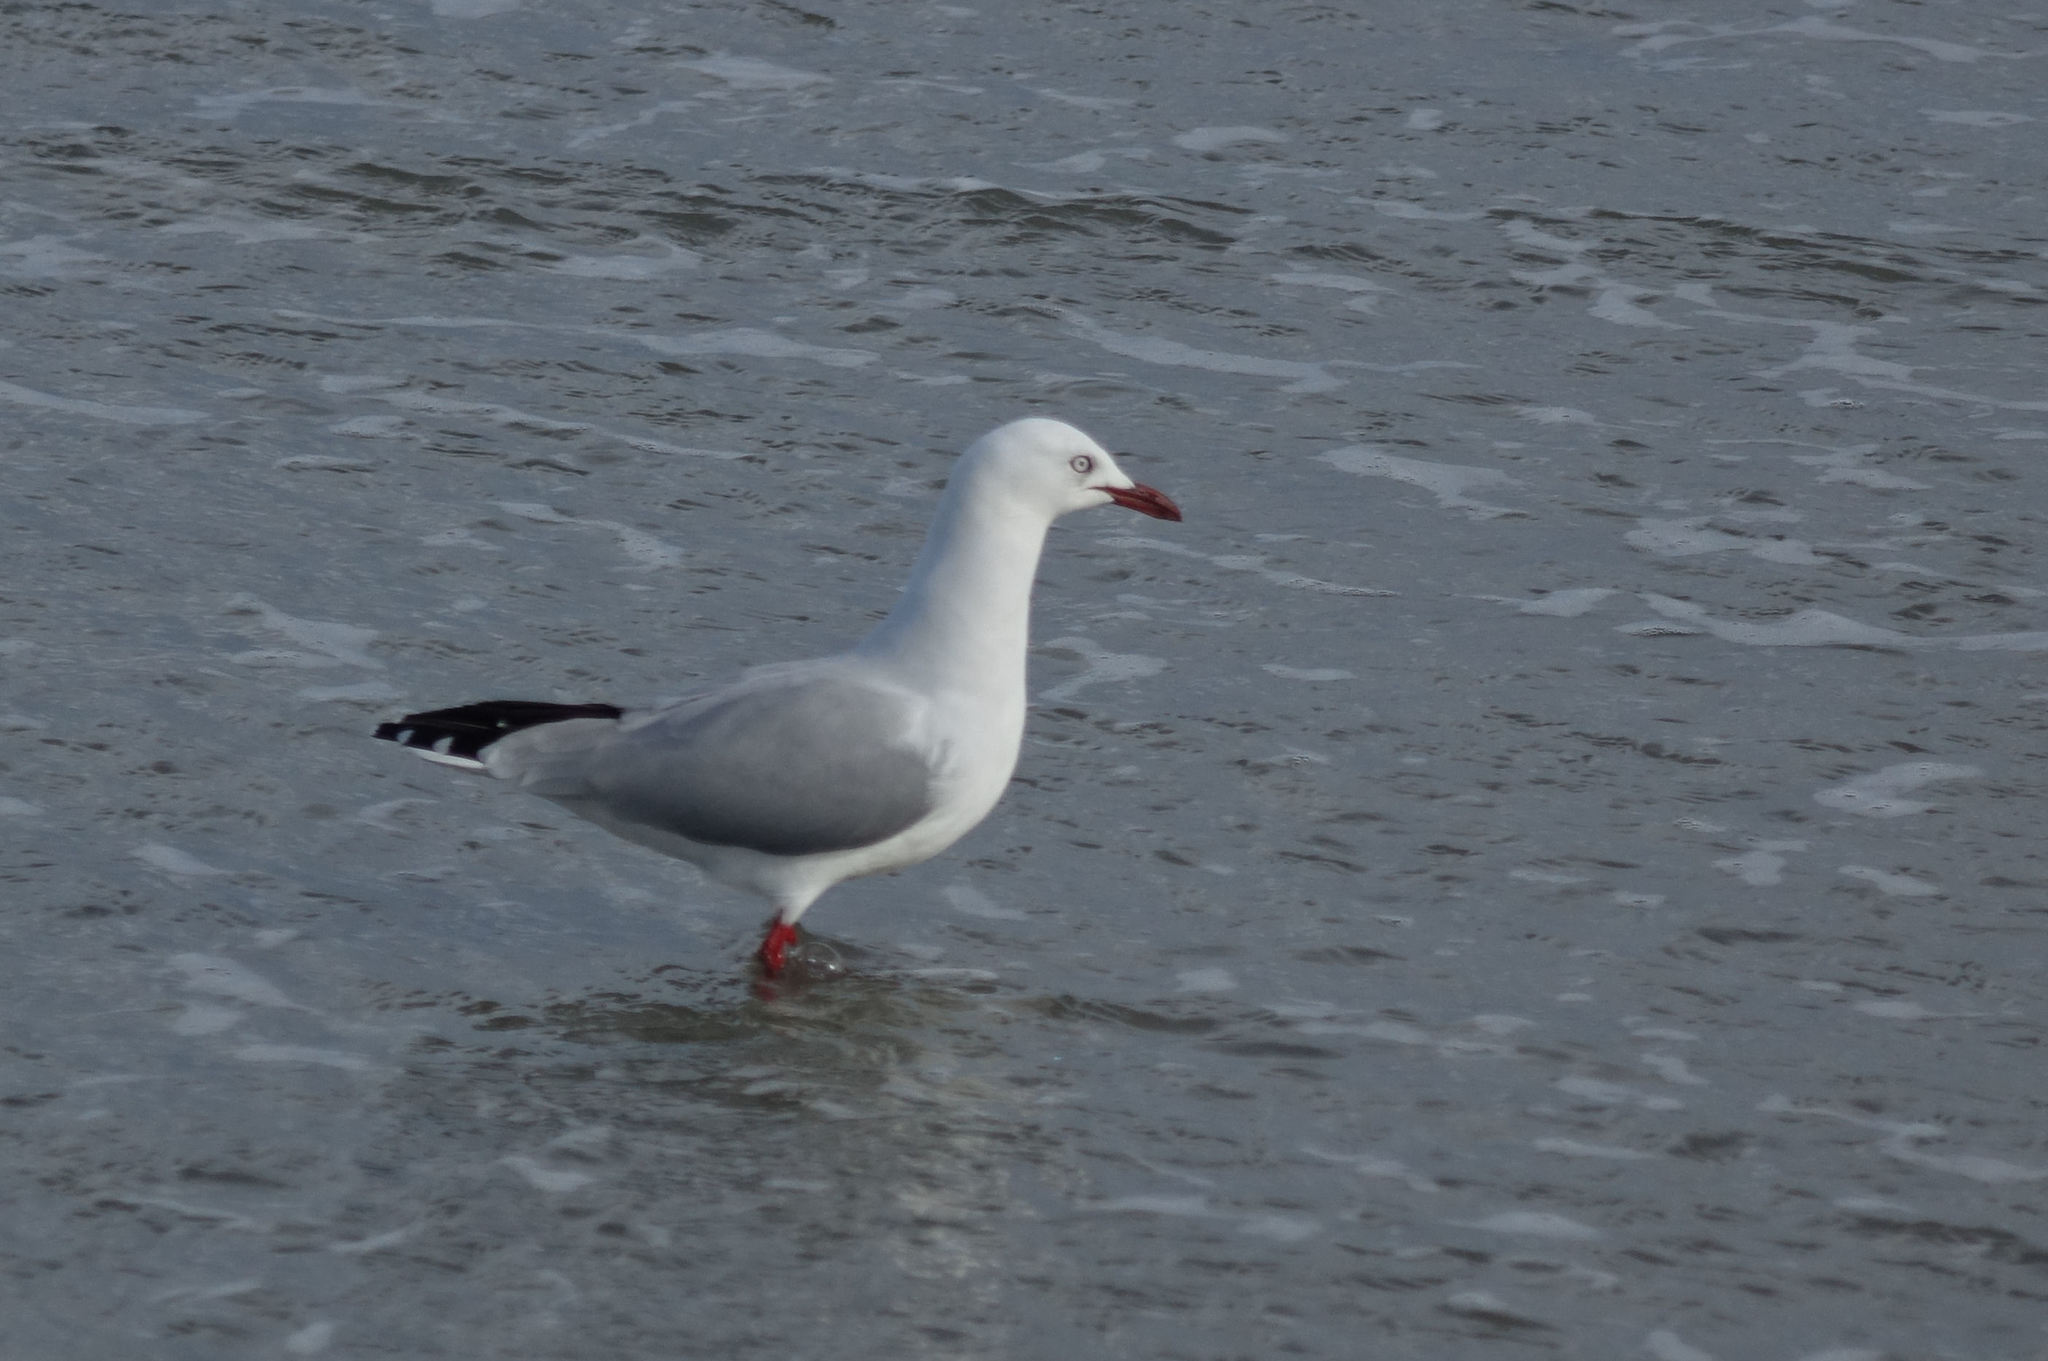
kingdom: Animalia
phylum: Chordata
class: Aves
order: Charadriiformes
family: Laridae
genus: Chroicocephalus
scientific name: Chroicocephalus novaehollandiae
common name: Silver gull
